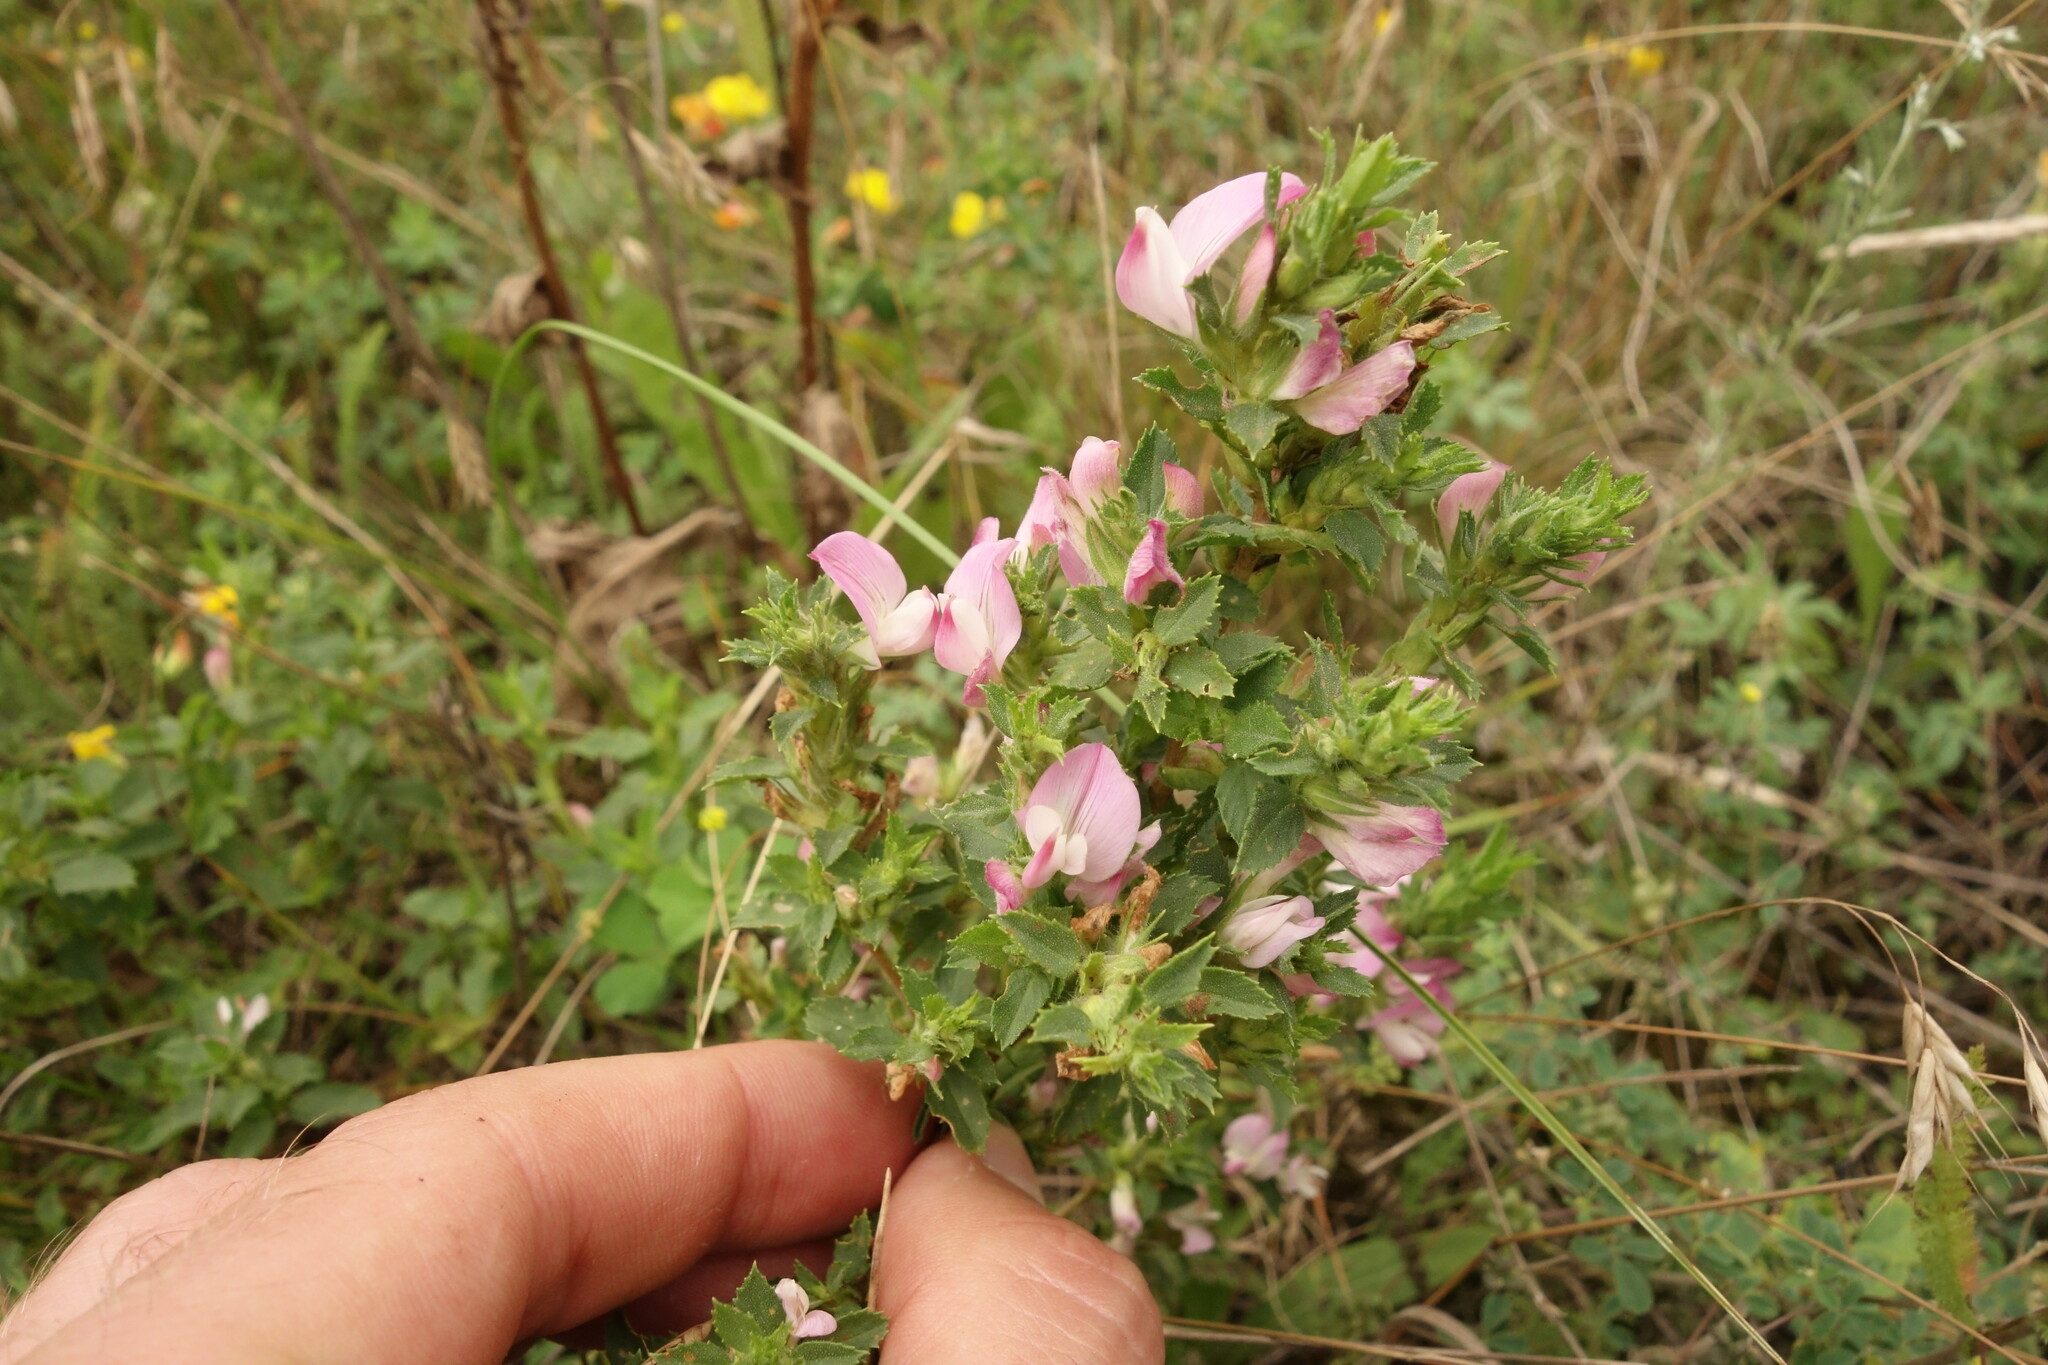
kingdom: Plantae
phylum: Tracheophyta
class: Magnoliopsida
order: Fabales
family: Fabaceae
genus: Ononis
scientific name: Ononis arvensis
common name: Field restharrow
